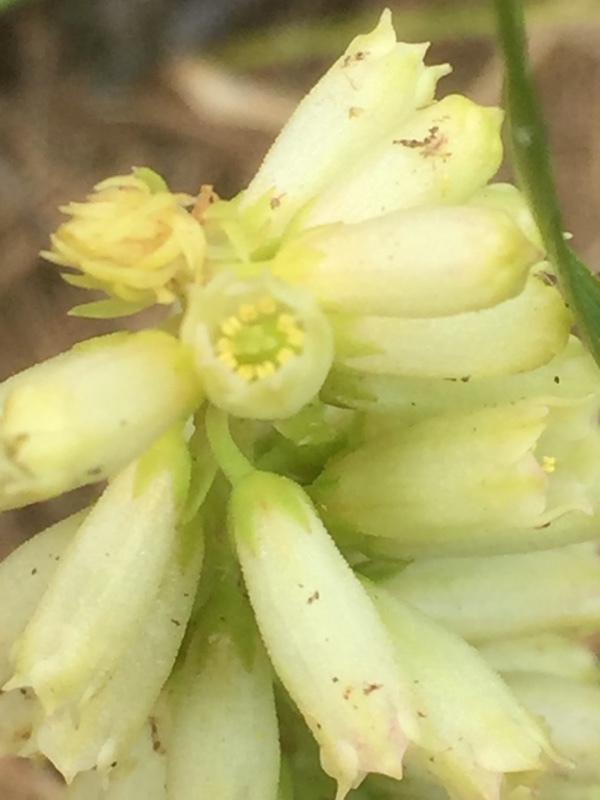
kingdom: Plantae
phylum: Tracheophyta
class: Magnoliopsida
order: Saxifragales
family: Crassulaceae
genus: Umbilicus
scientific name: Umbilicus rupestris
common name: Navelwort
